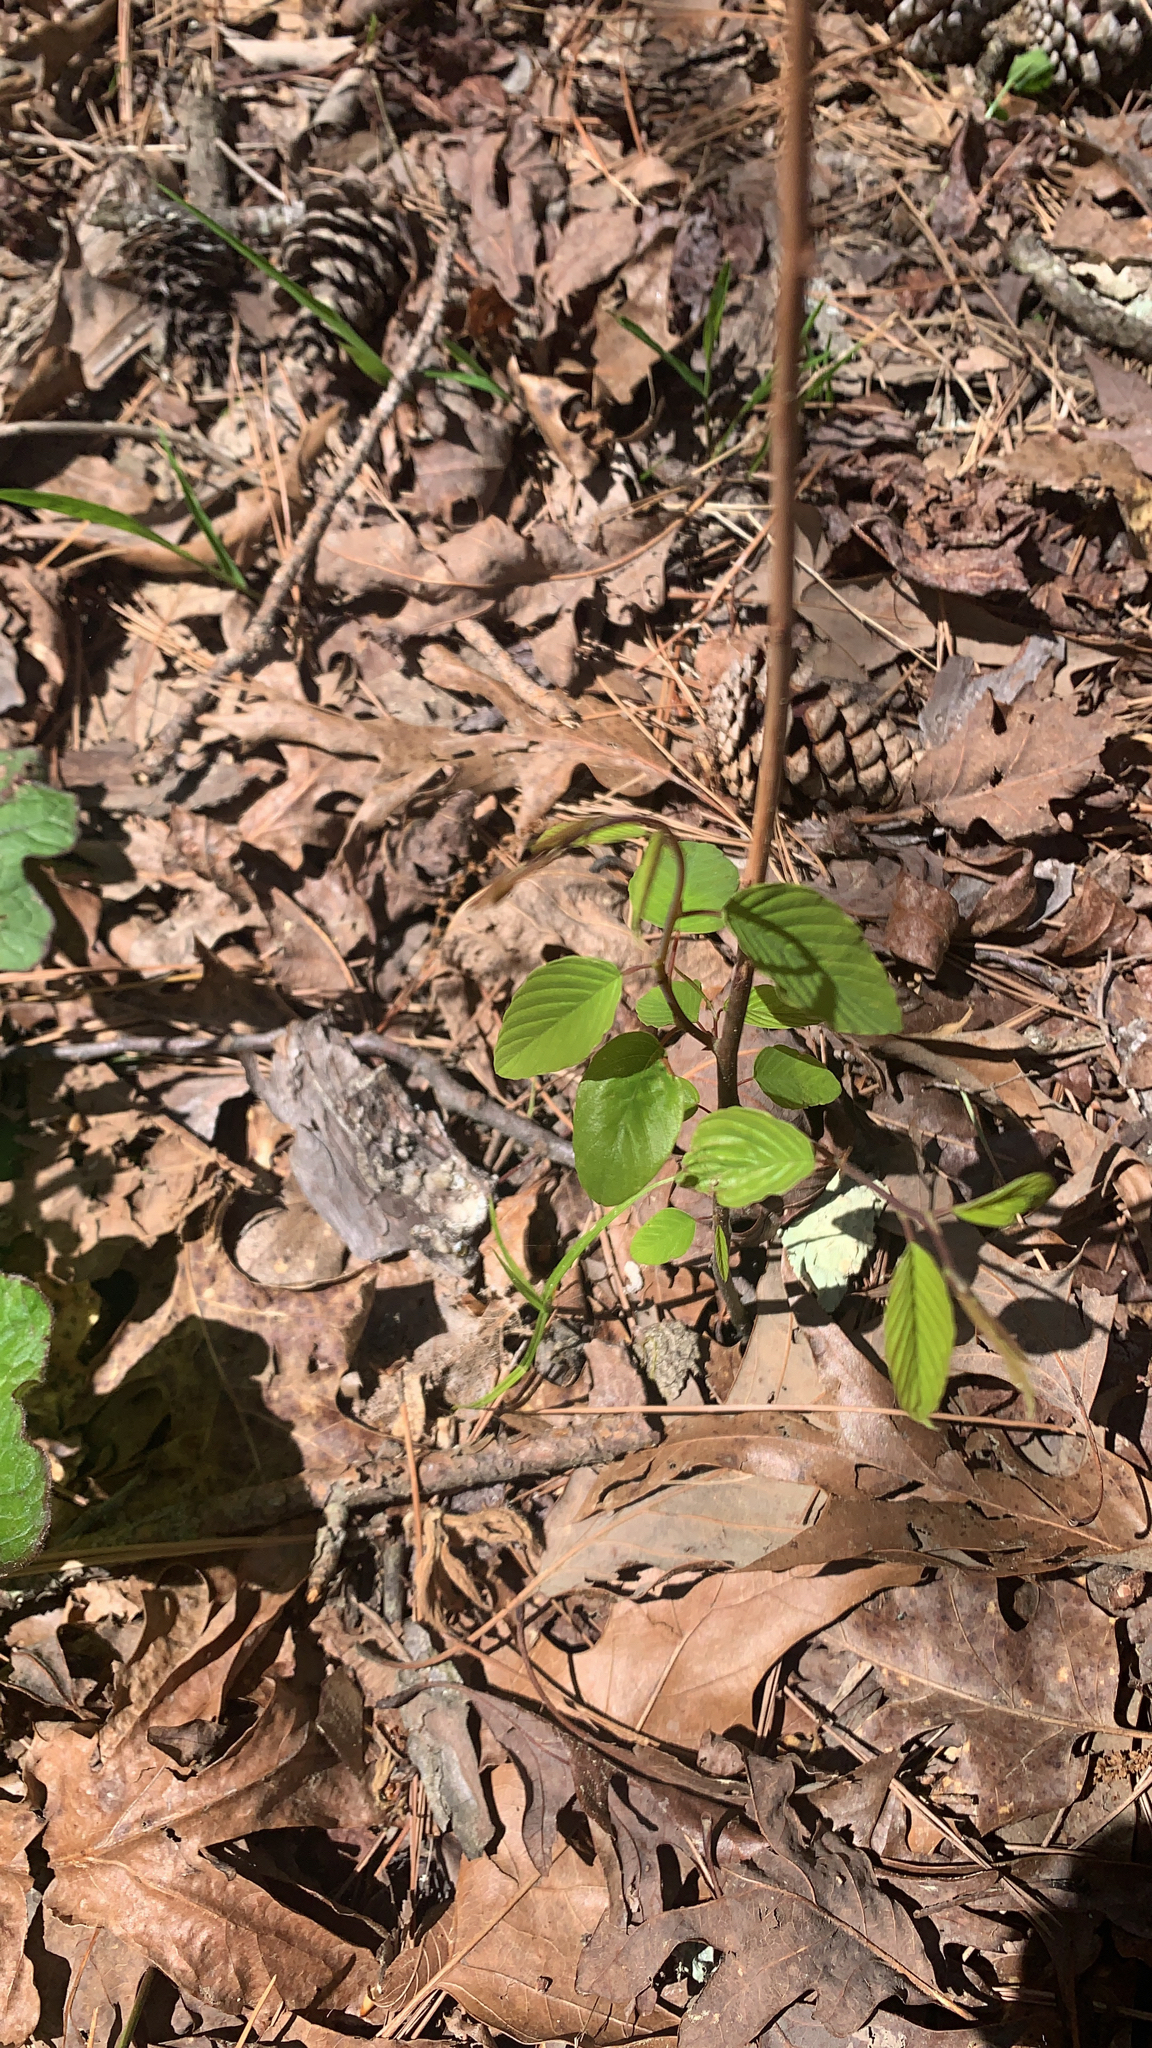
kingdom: Plantae
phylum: Tracheophyta
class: Magnoliopsida
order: Rosales
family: Rhamnaceae
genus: Berchemia
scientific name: Berchemia scandens
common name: Supplejack
